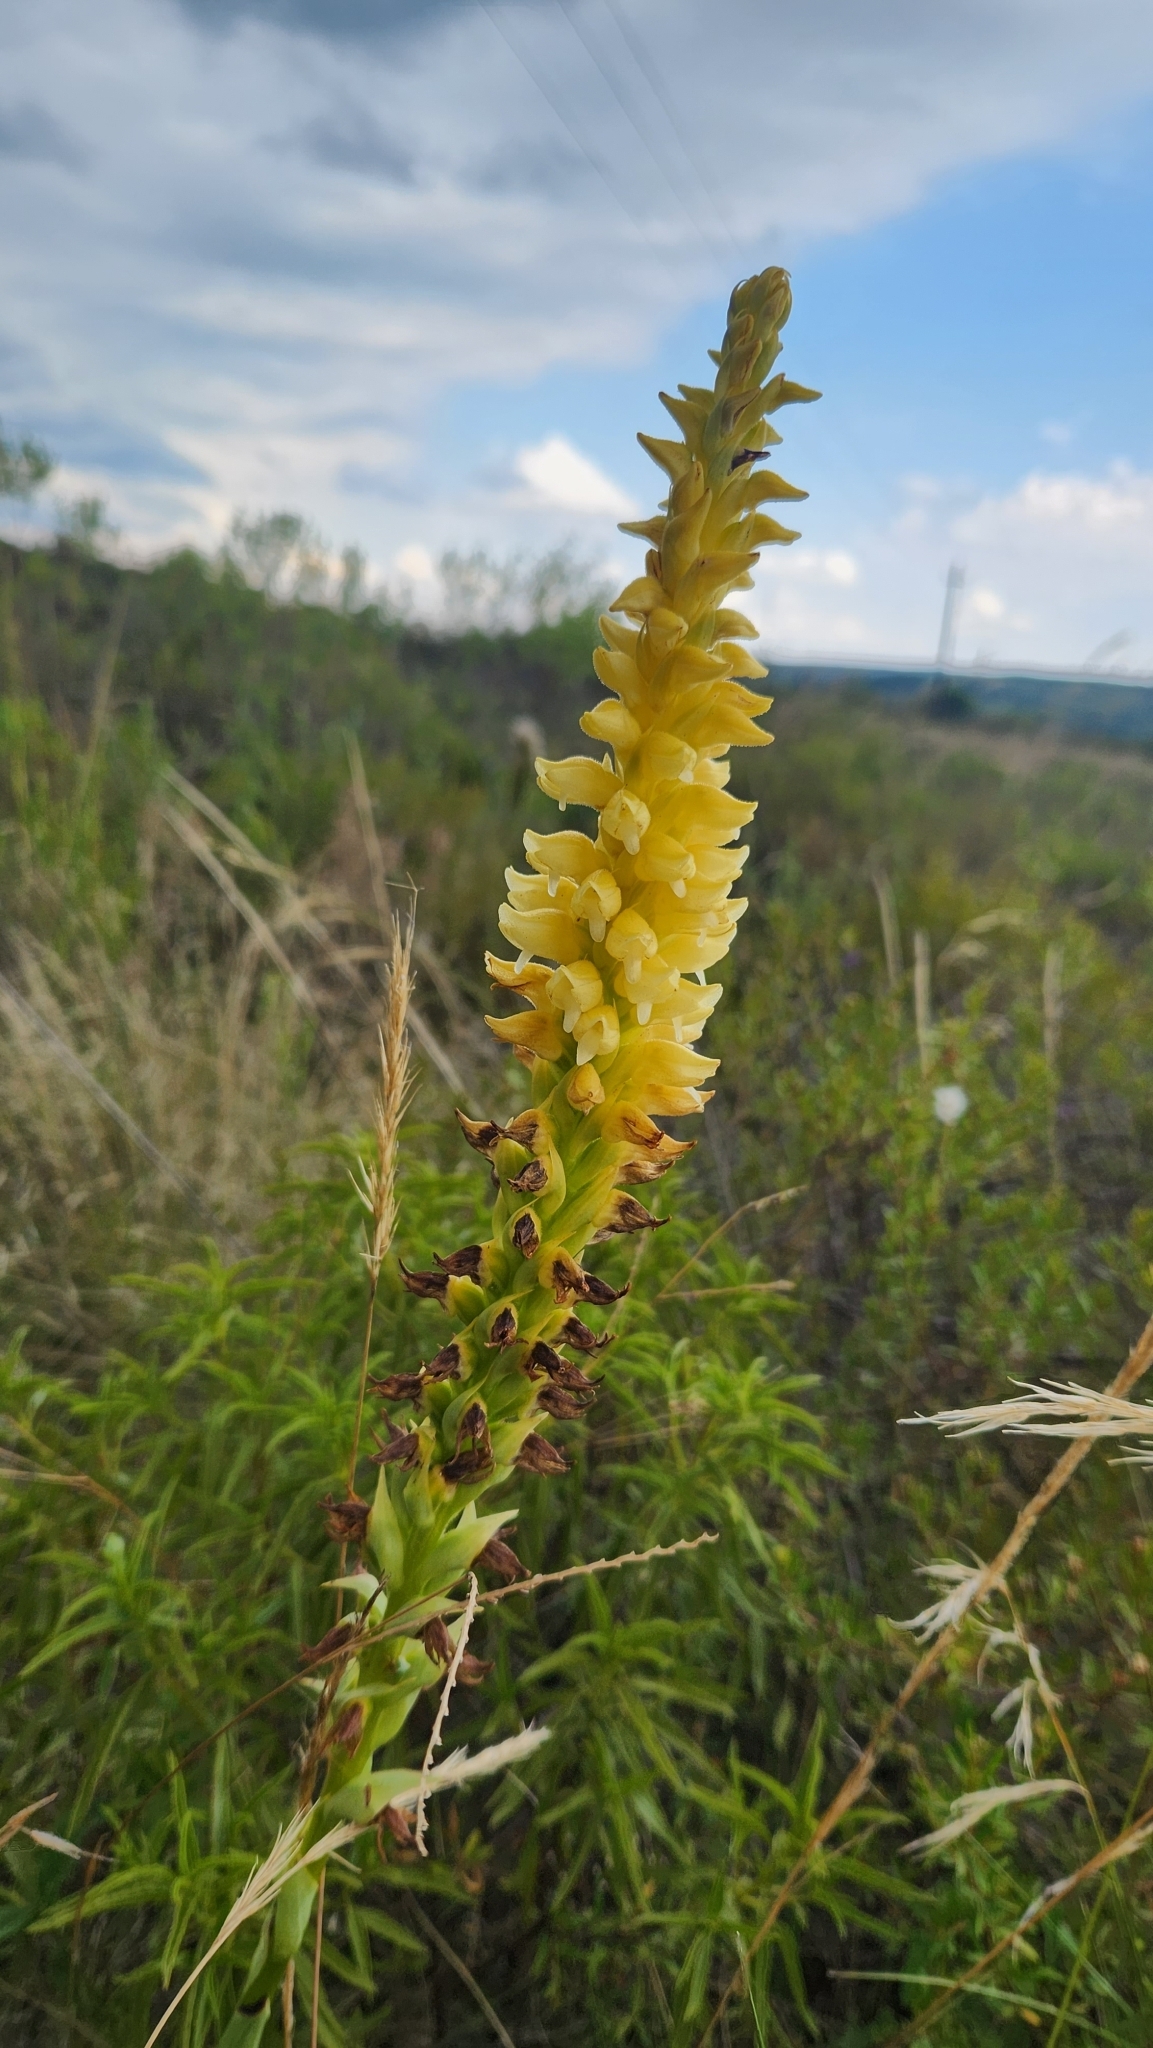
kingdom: Plantae
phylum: Tracheophyta
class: Liliopsida
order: Asparagales
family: Orchidaceae
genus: Skeptrostachys
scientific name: Skeptrostachys gigantea
